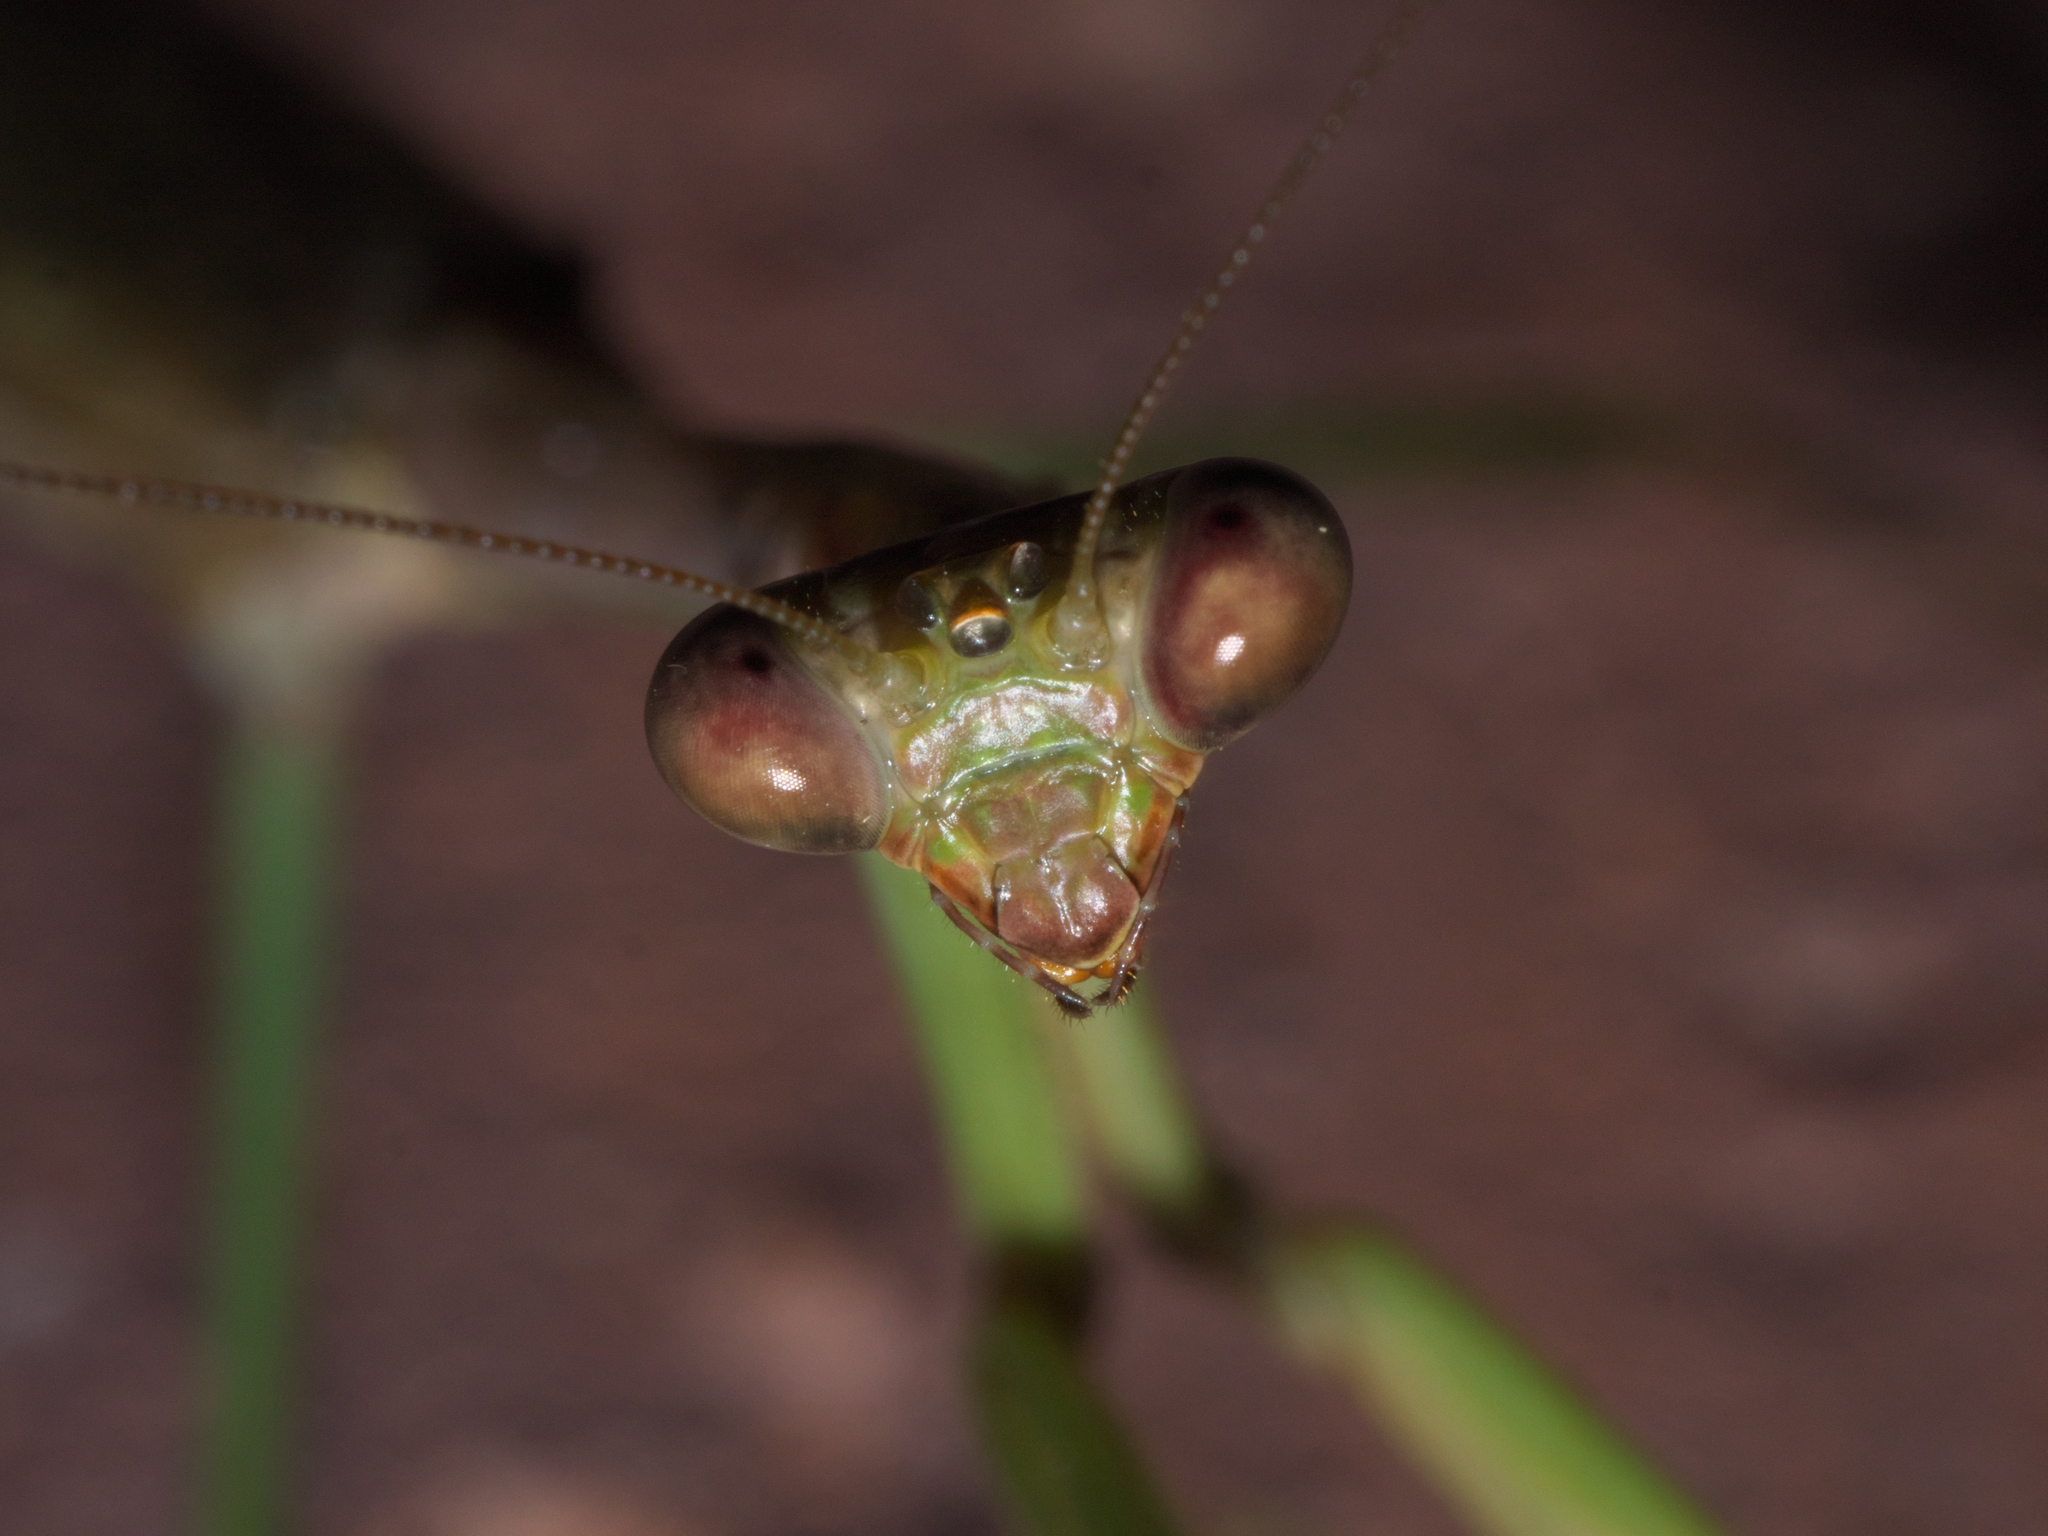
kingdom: Animalia
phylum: Arthropoda
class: Insecta
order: Mantodea
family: Mantidae
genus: Stagmomantis
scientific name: Stagmomantis carolina
